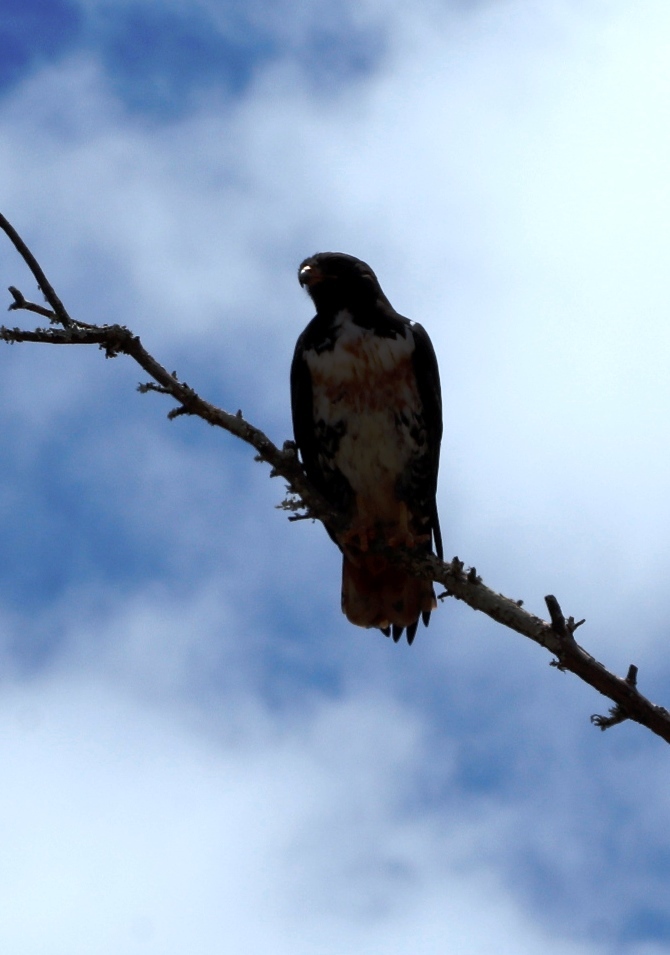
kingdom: Animalia
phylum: Chordata
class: Aves
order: Accipitriformes
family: Accipitridae
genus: Buteo
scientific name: Buteo rufofuscus
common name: Jackal buzzard
